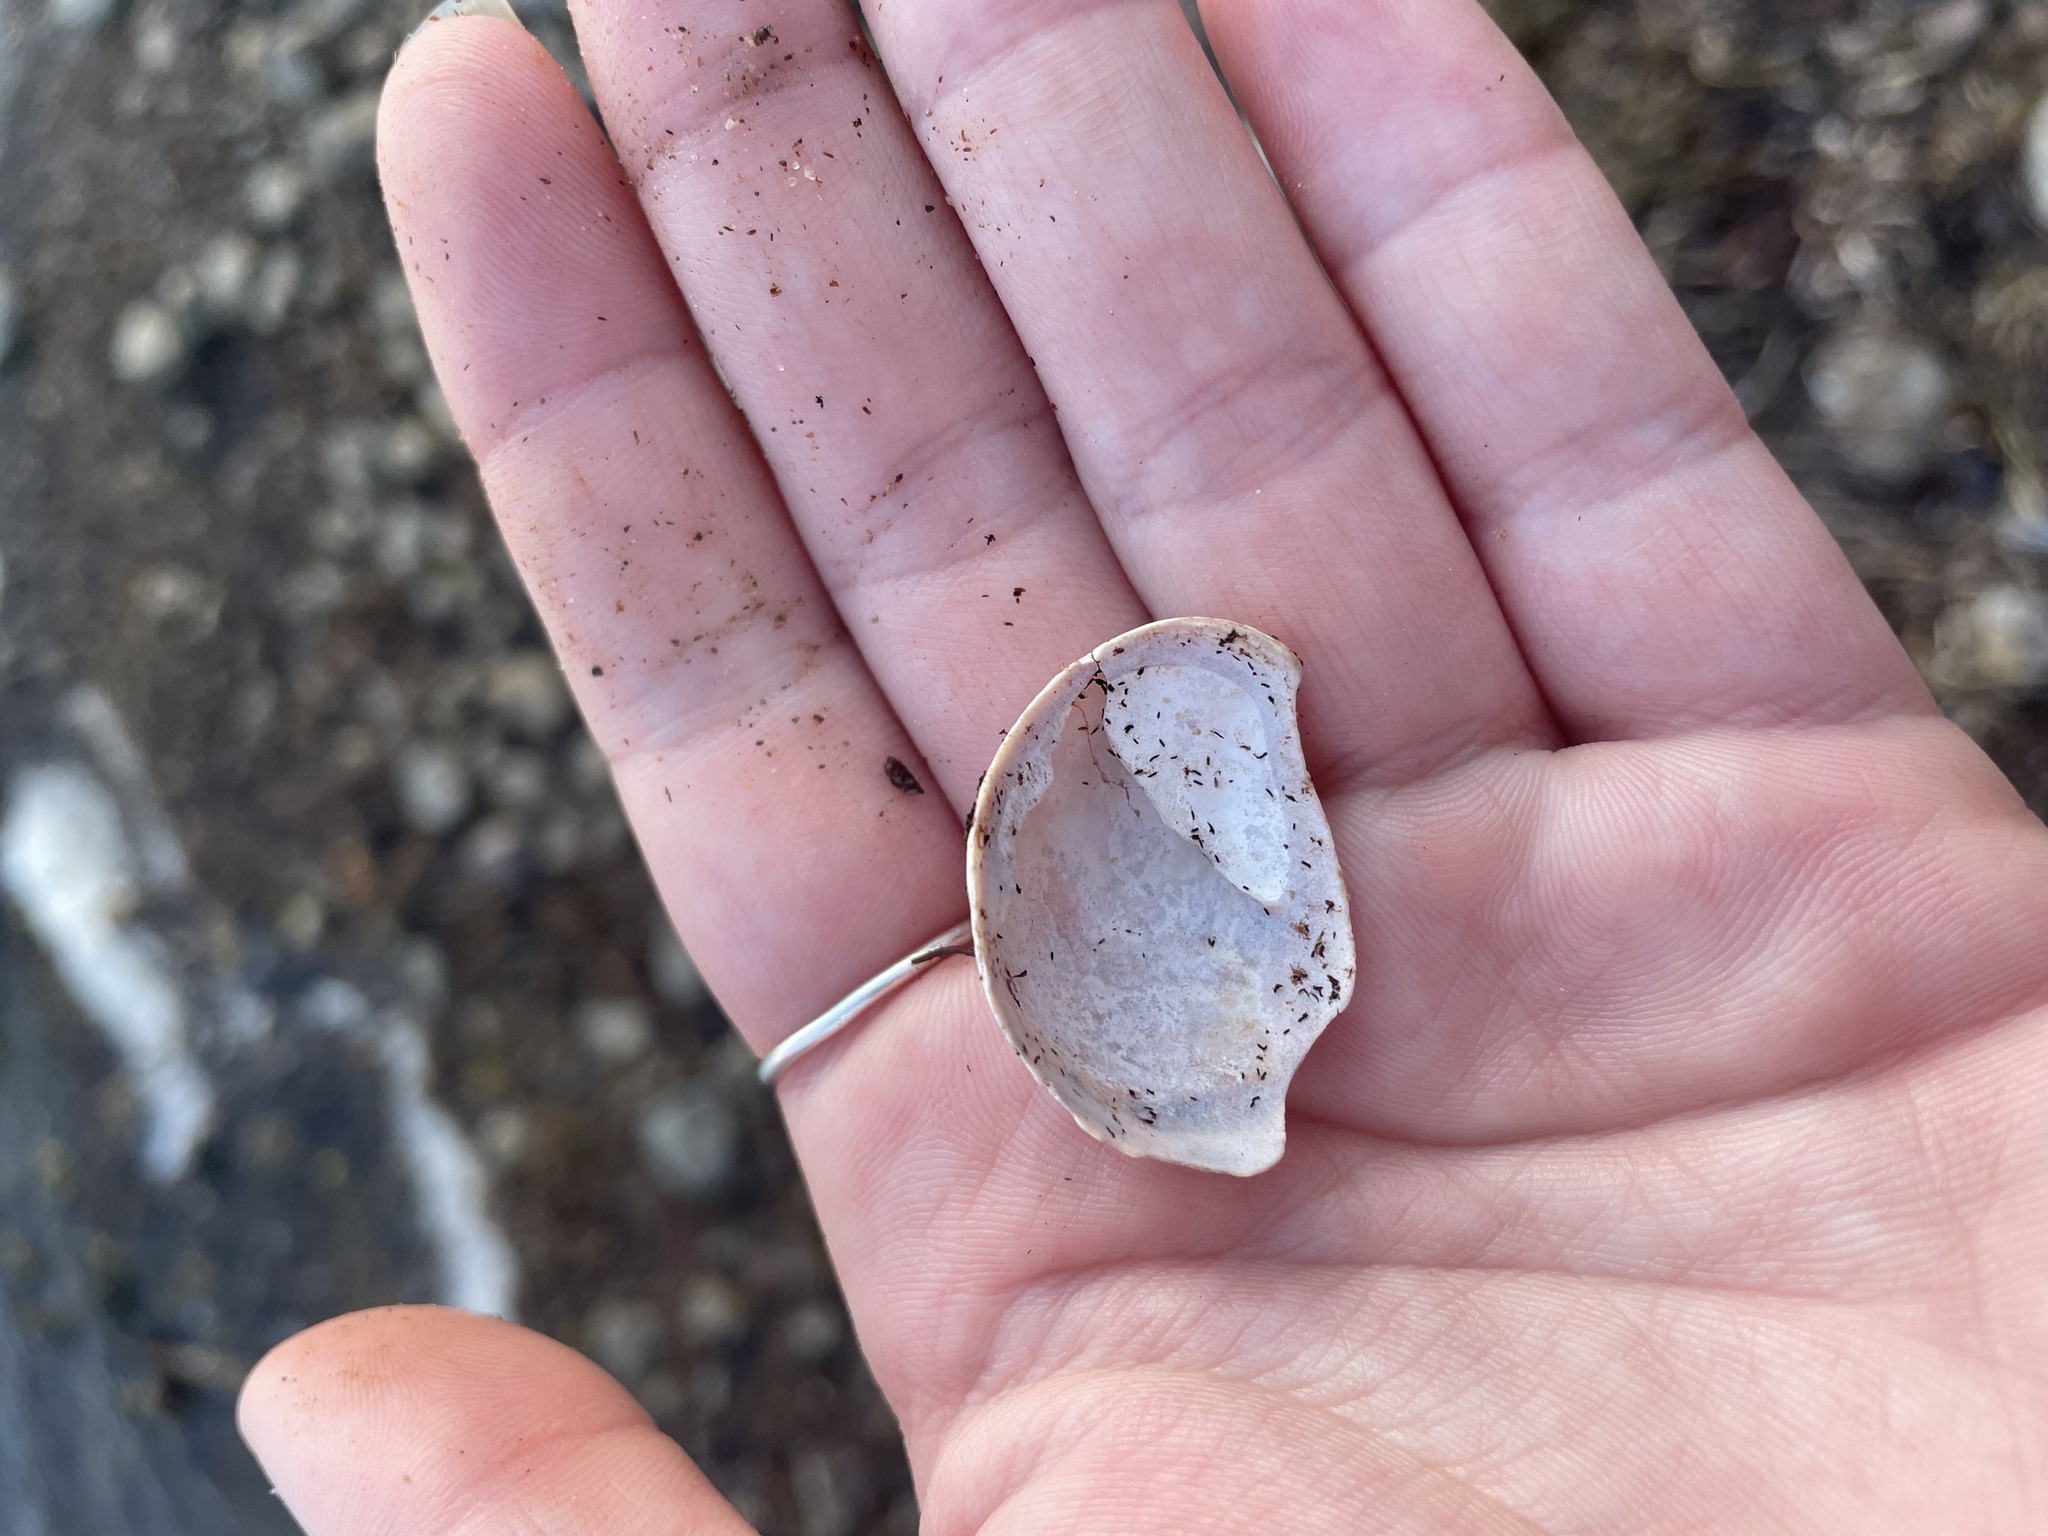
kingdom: Animalia
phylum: Mollusca
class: Gastropoda
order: Littorinimorpha
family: Calyptraeidae
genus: Crepidula
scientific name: Crepidula fornicata
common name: Slipper limpet
